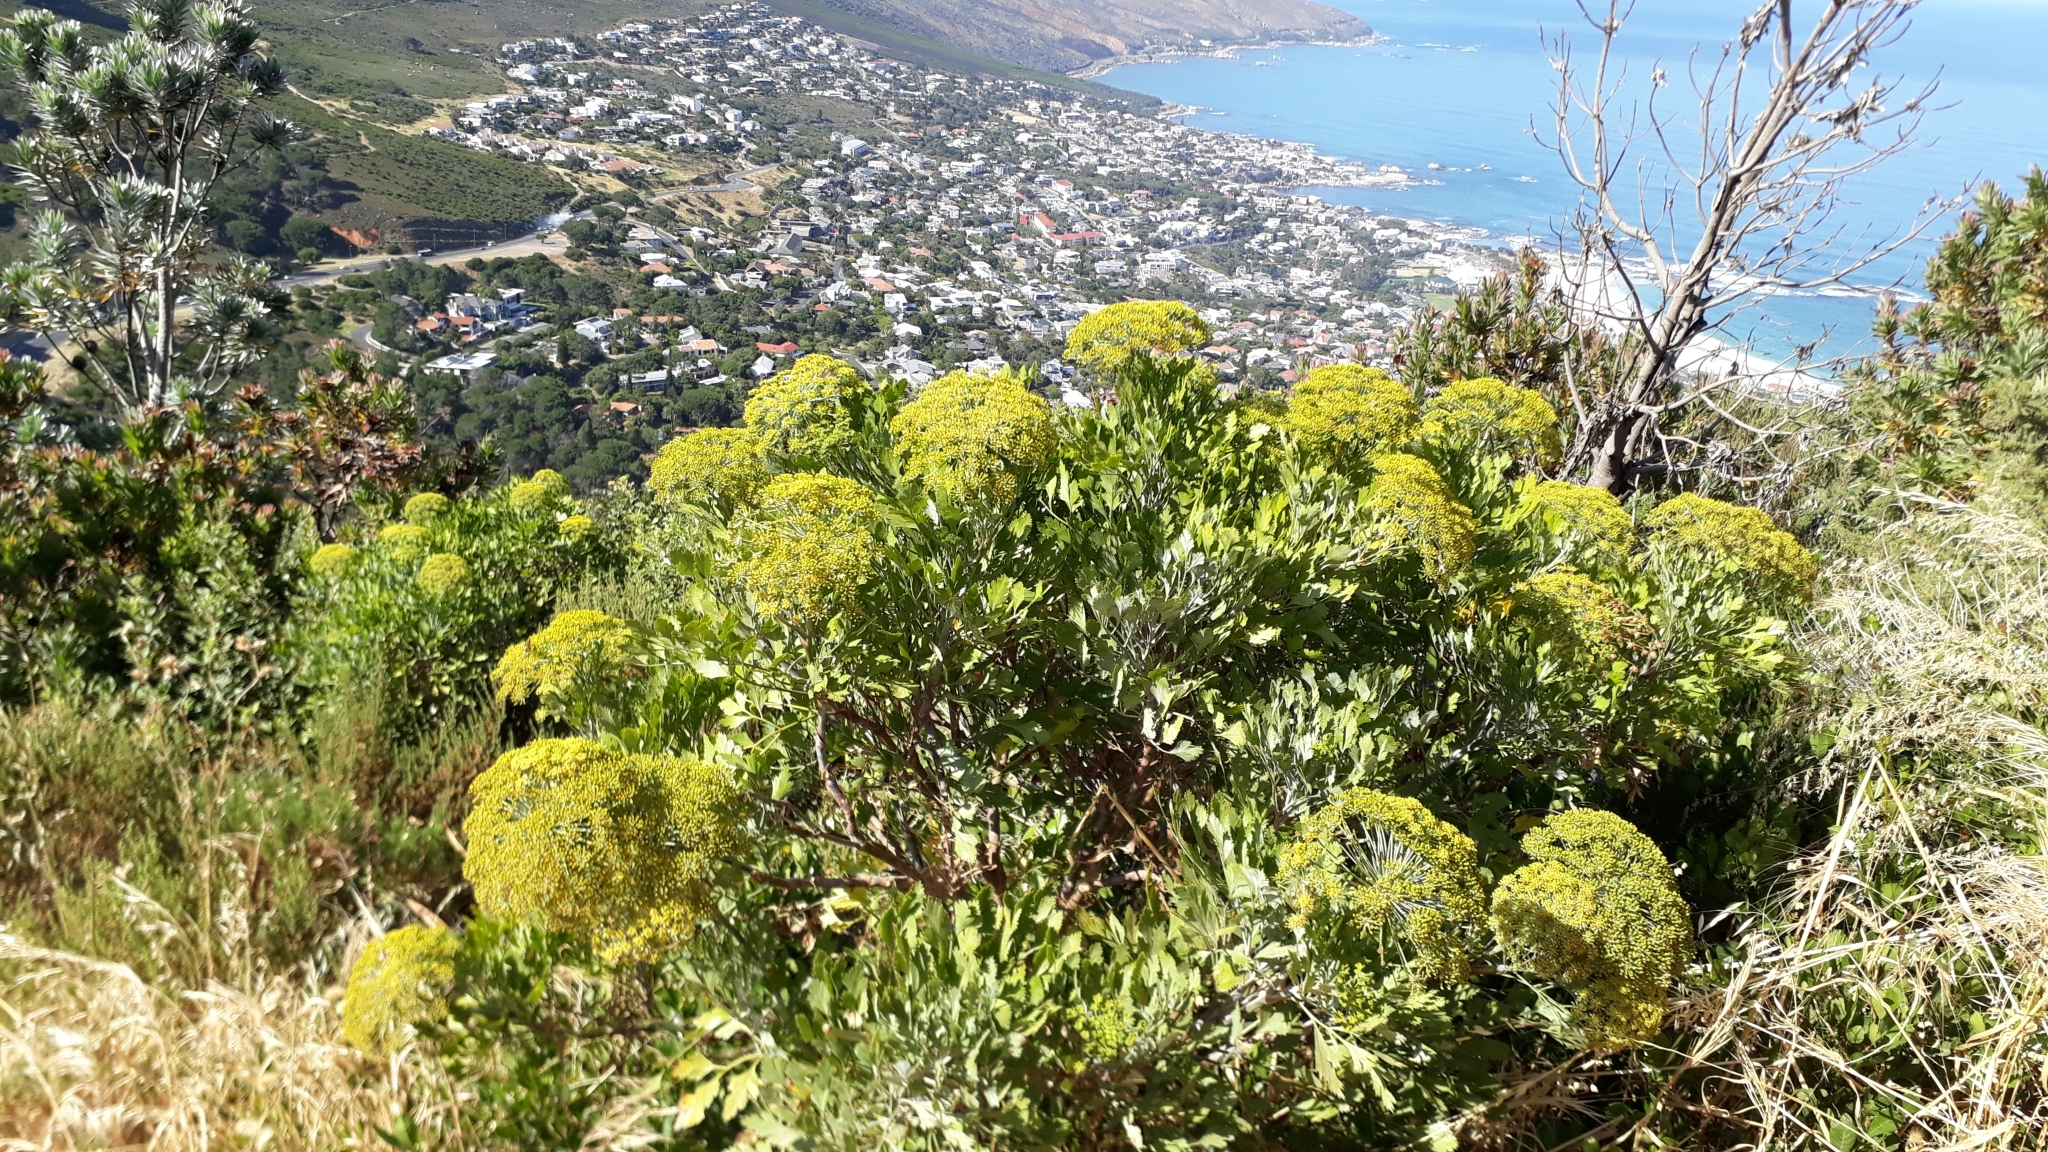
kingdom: Plantae
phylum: Tracheophyta
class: Magnoliopsida
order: Apiales
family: Apiaceae
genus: Notobubon
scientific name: Notobubon galbanum
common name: Blisterbush
